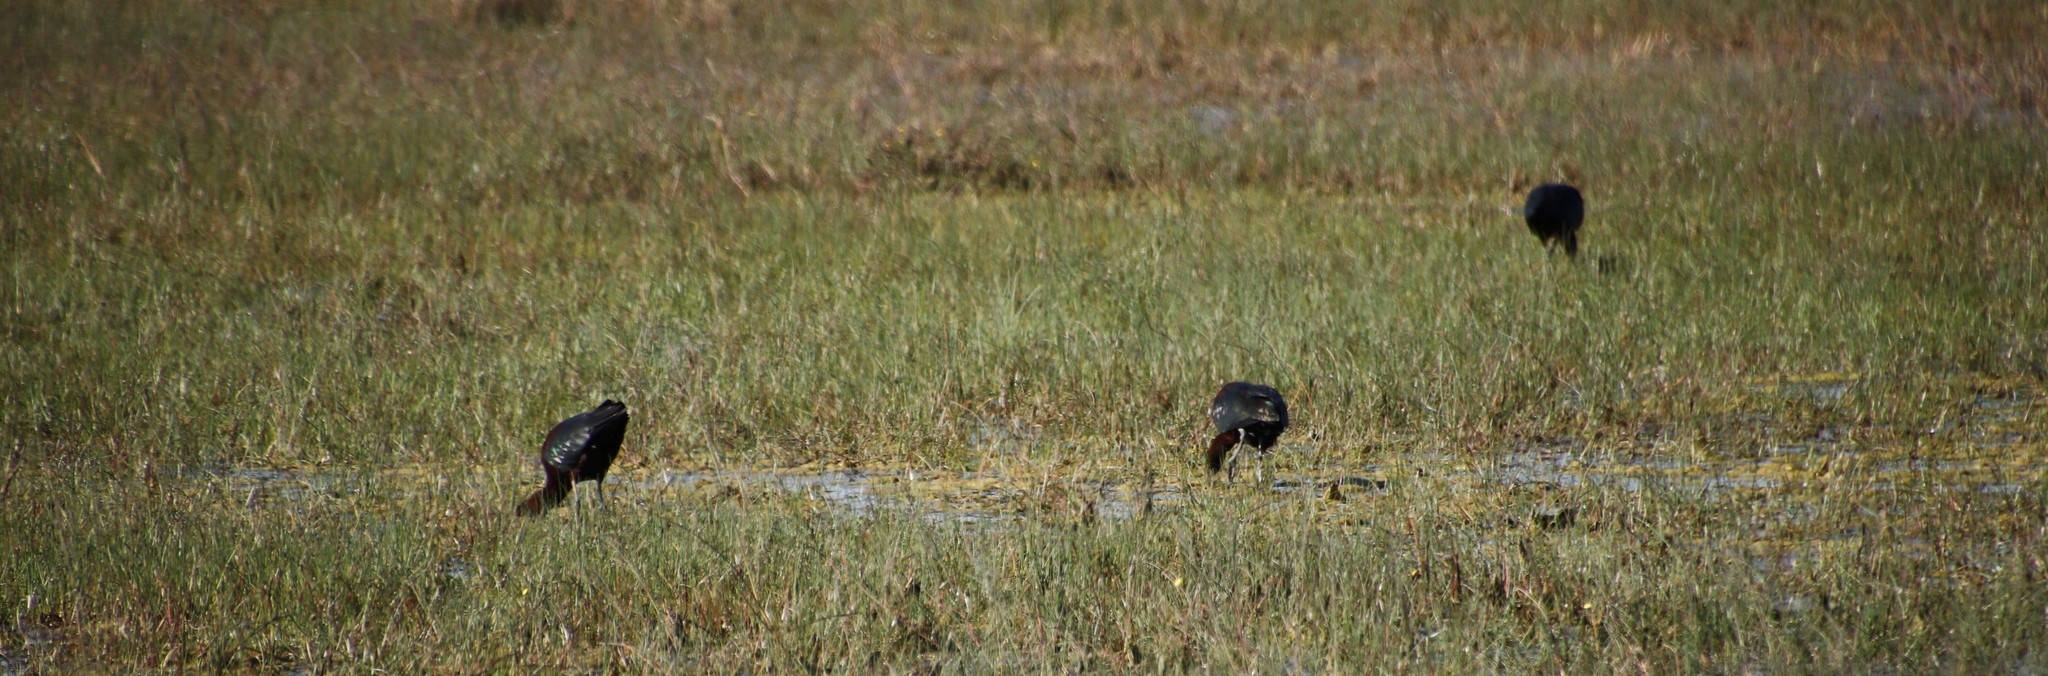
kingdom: Animalia
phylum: Chordata
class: Aves
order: Pelecaniformes
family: Threskiornithidae
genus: Plegadis
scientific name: Plegadis falcinellus
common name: Glossy ibis
